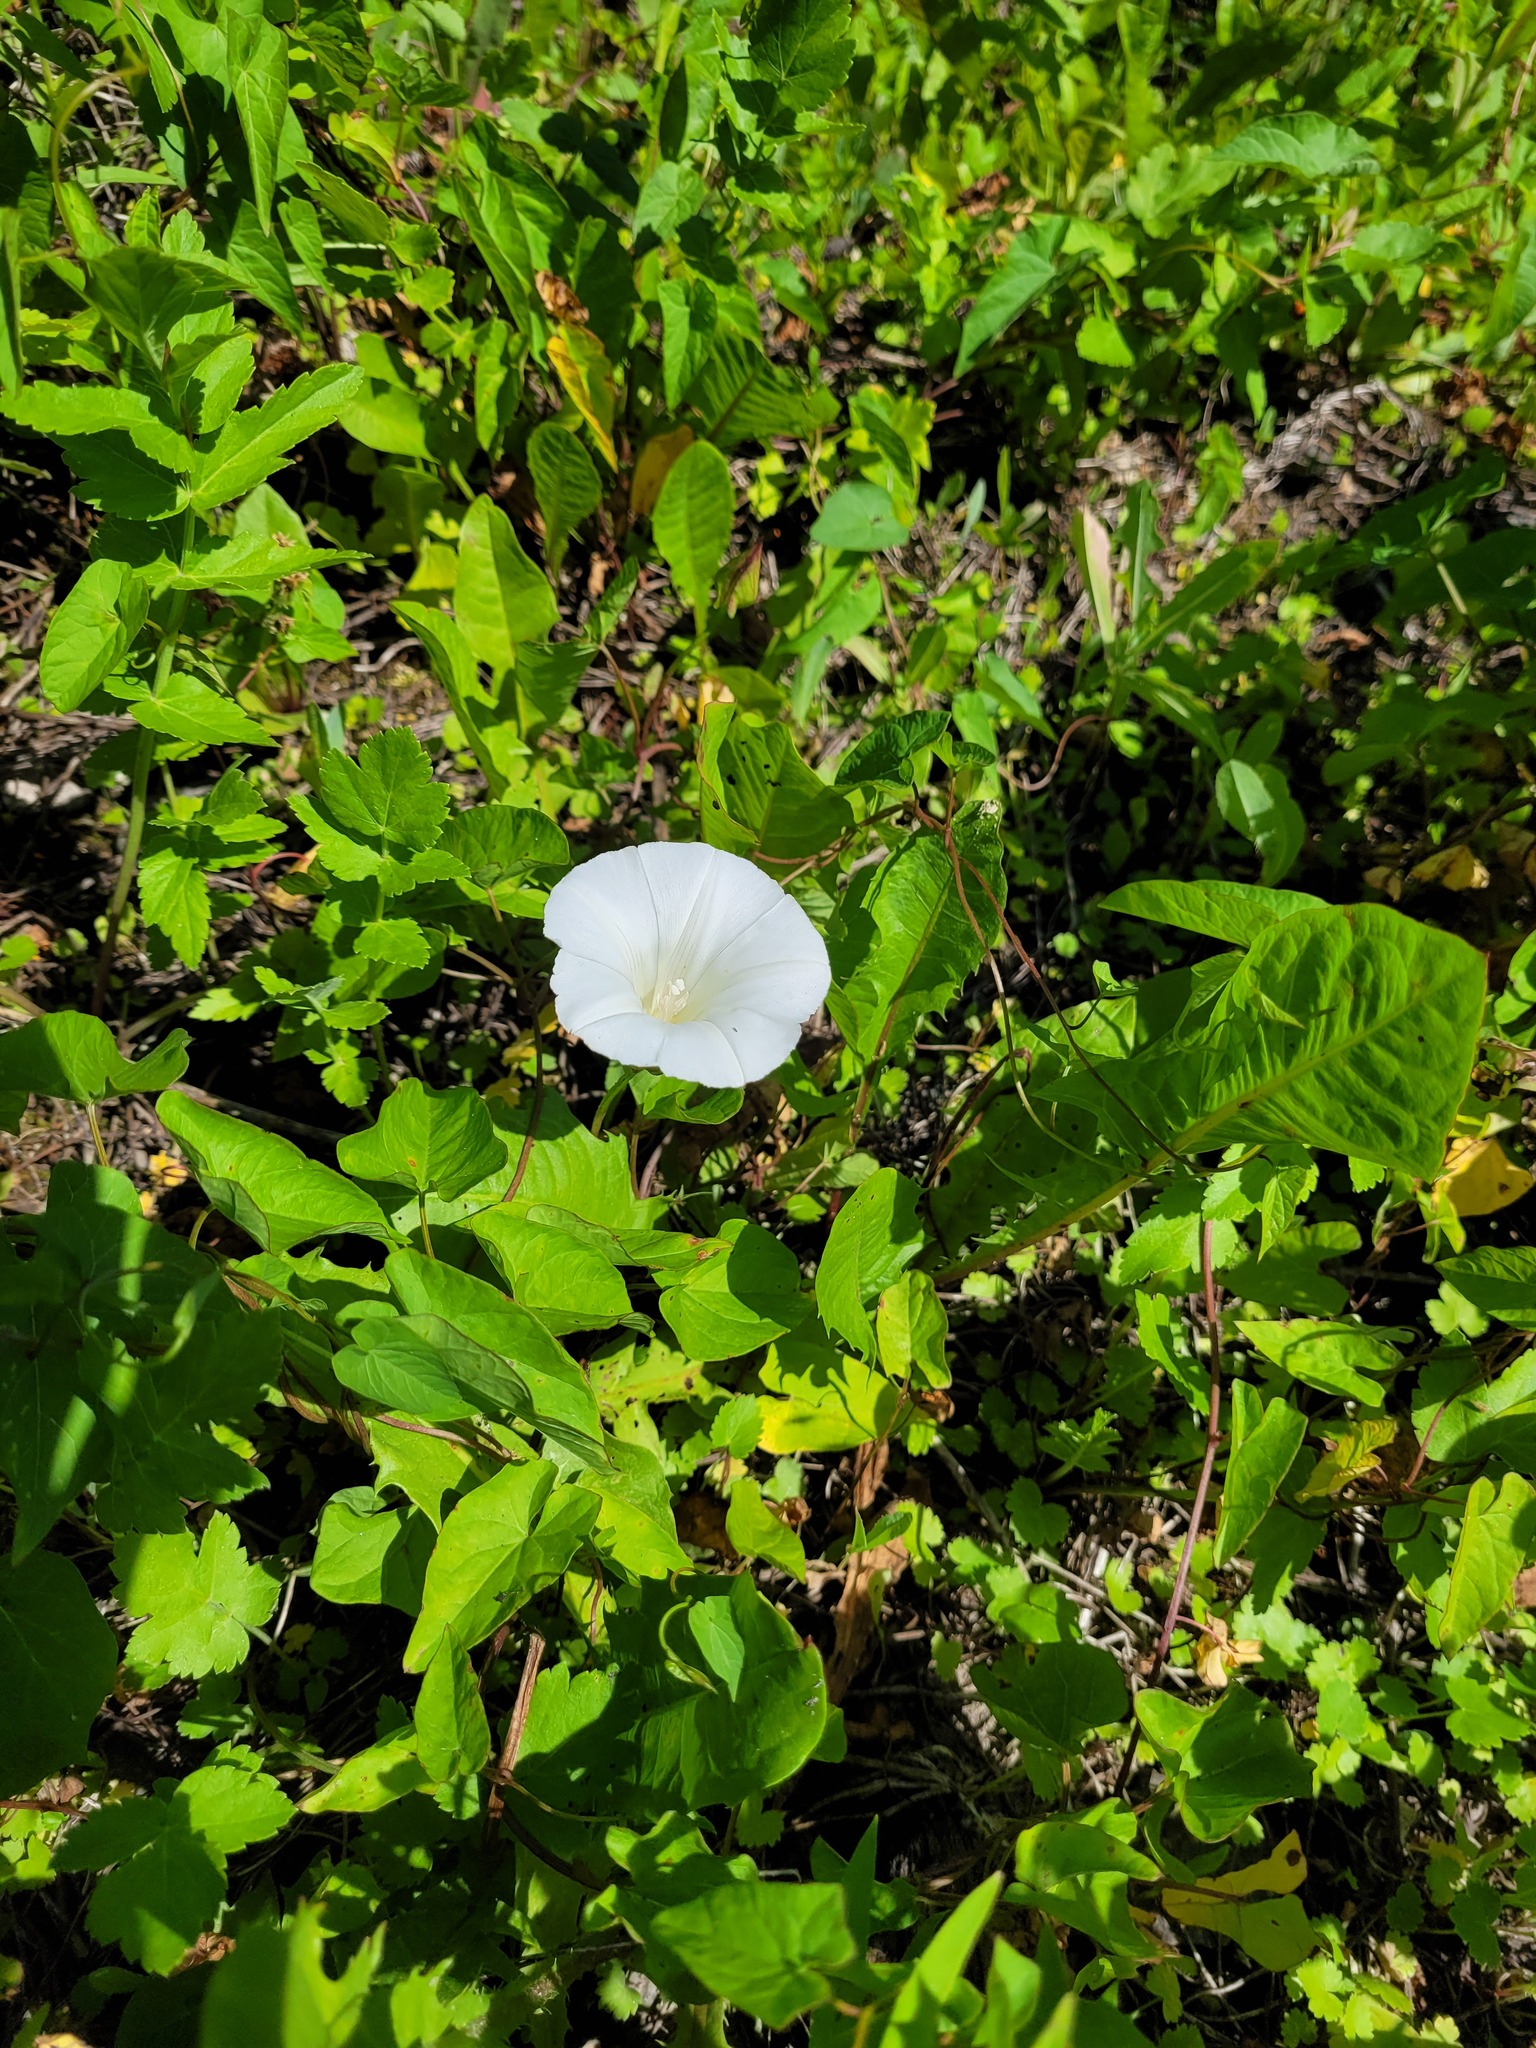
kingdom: Plantae
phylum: Tracheophyta
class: Magnoliopsida
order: Solanales
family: Convolvulaceae
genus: Calystegia
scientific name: Calystegia sepium
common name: Hedge bindweed
